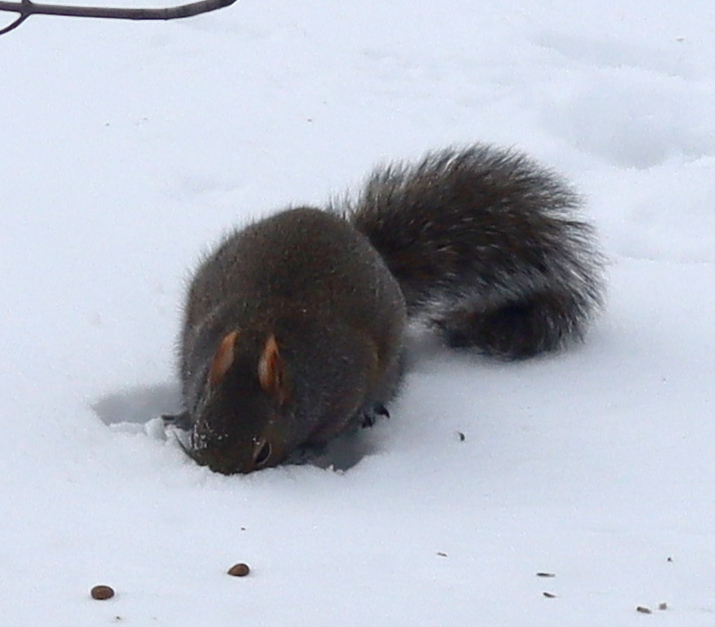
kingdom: Animalia
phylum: Chordata
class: Mammalia
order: Rodentia
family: Sciuridae
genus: Sciurus
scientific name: Sciurus carolinensis
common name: Eastern gray squirrel
